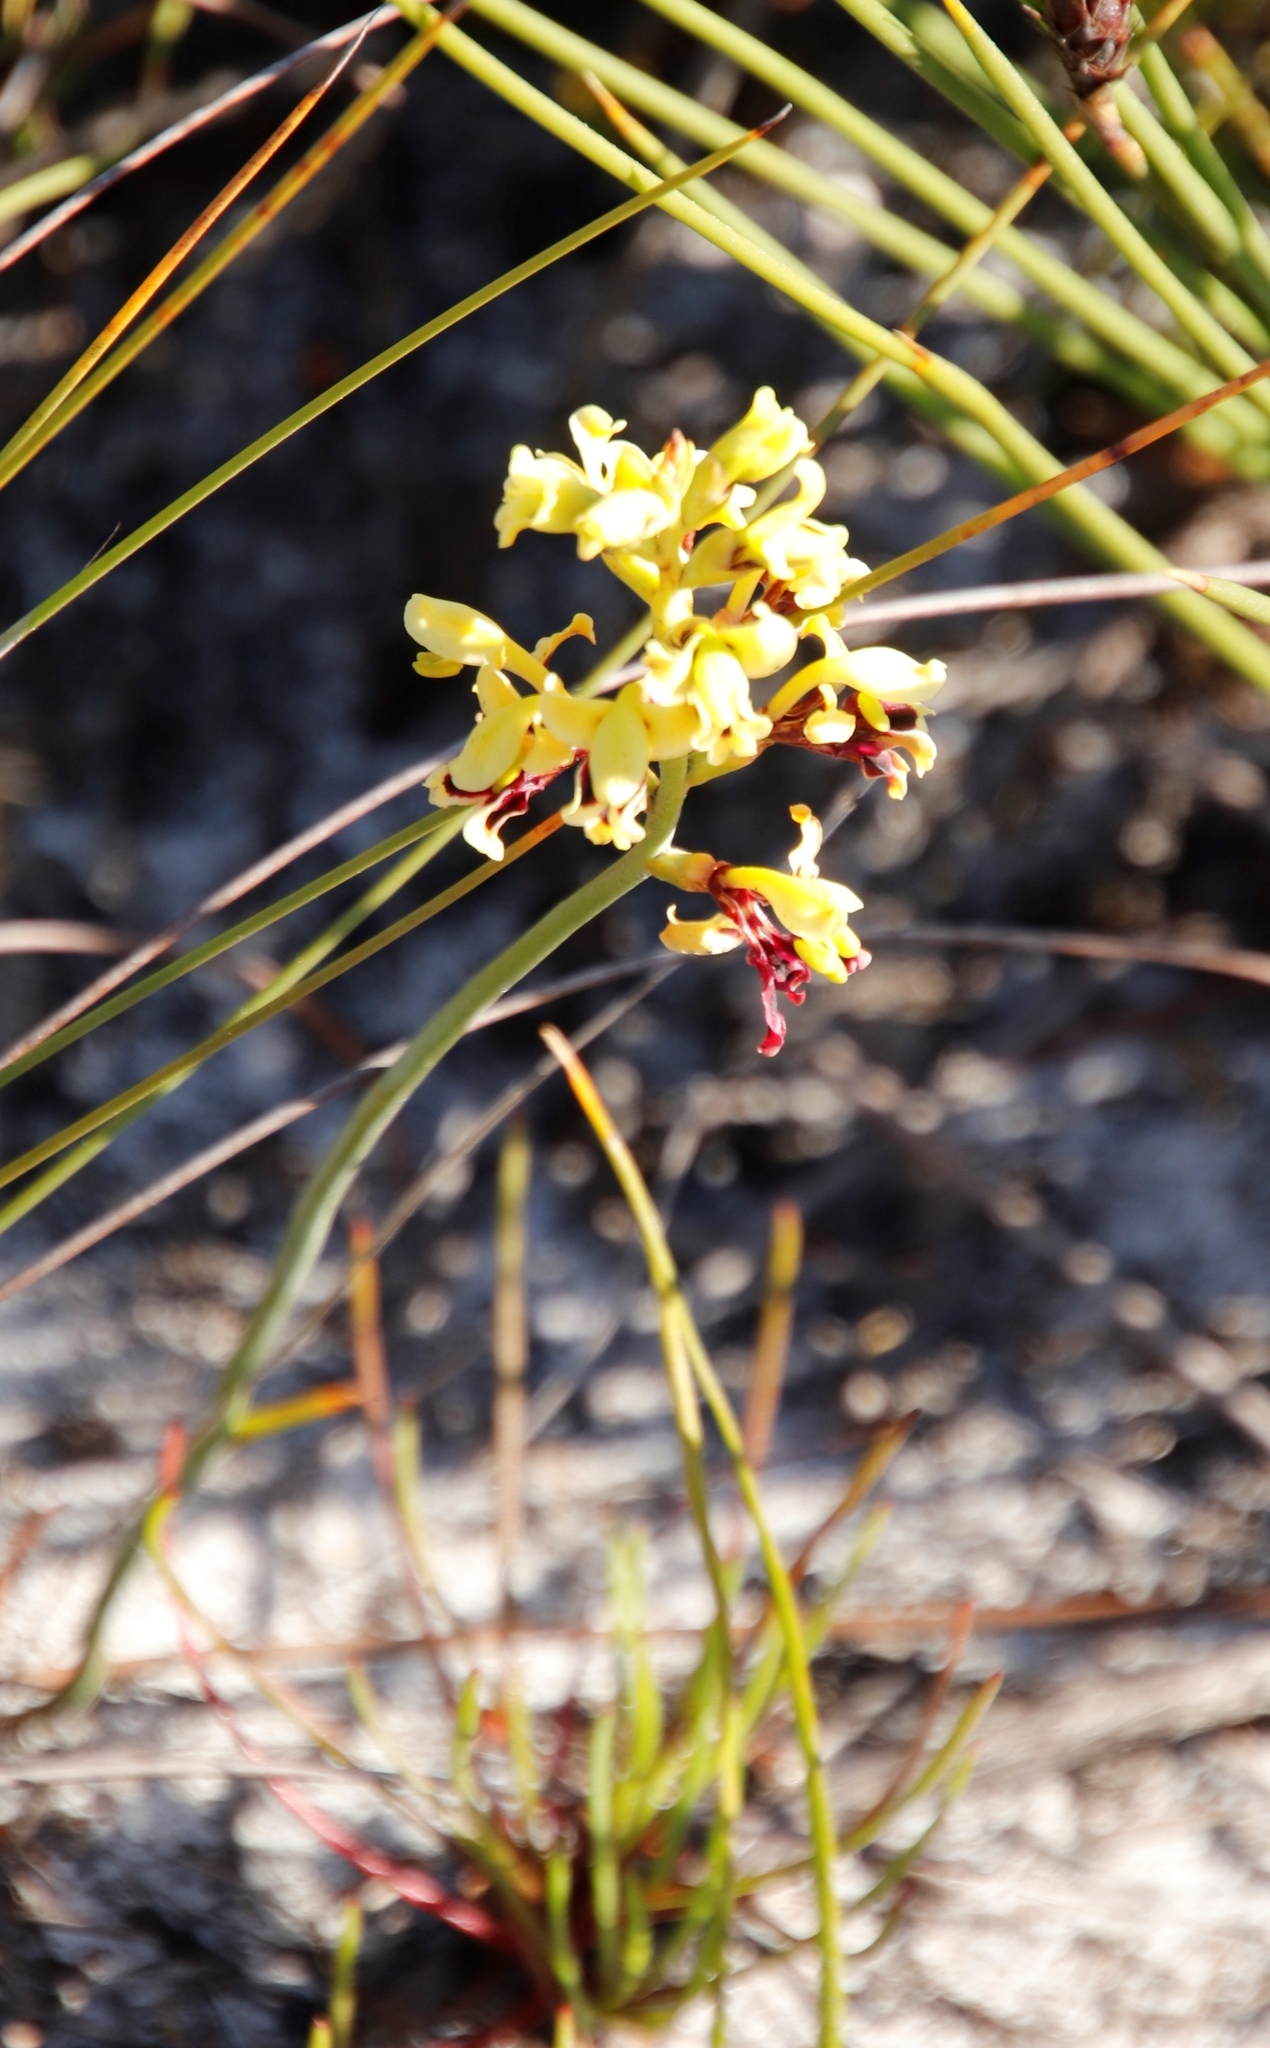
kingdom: Plantae
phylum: Tracheophyta
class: Liliopsida
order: Asparagales
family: Iridaceae
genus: Tritoniopsis
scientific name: Tritoniopsis parviflora
